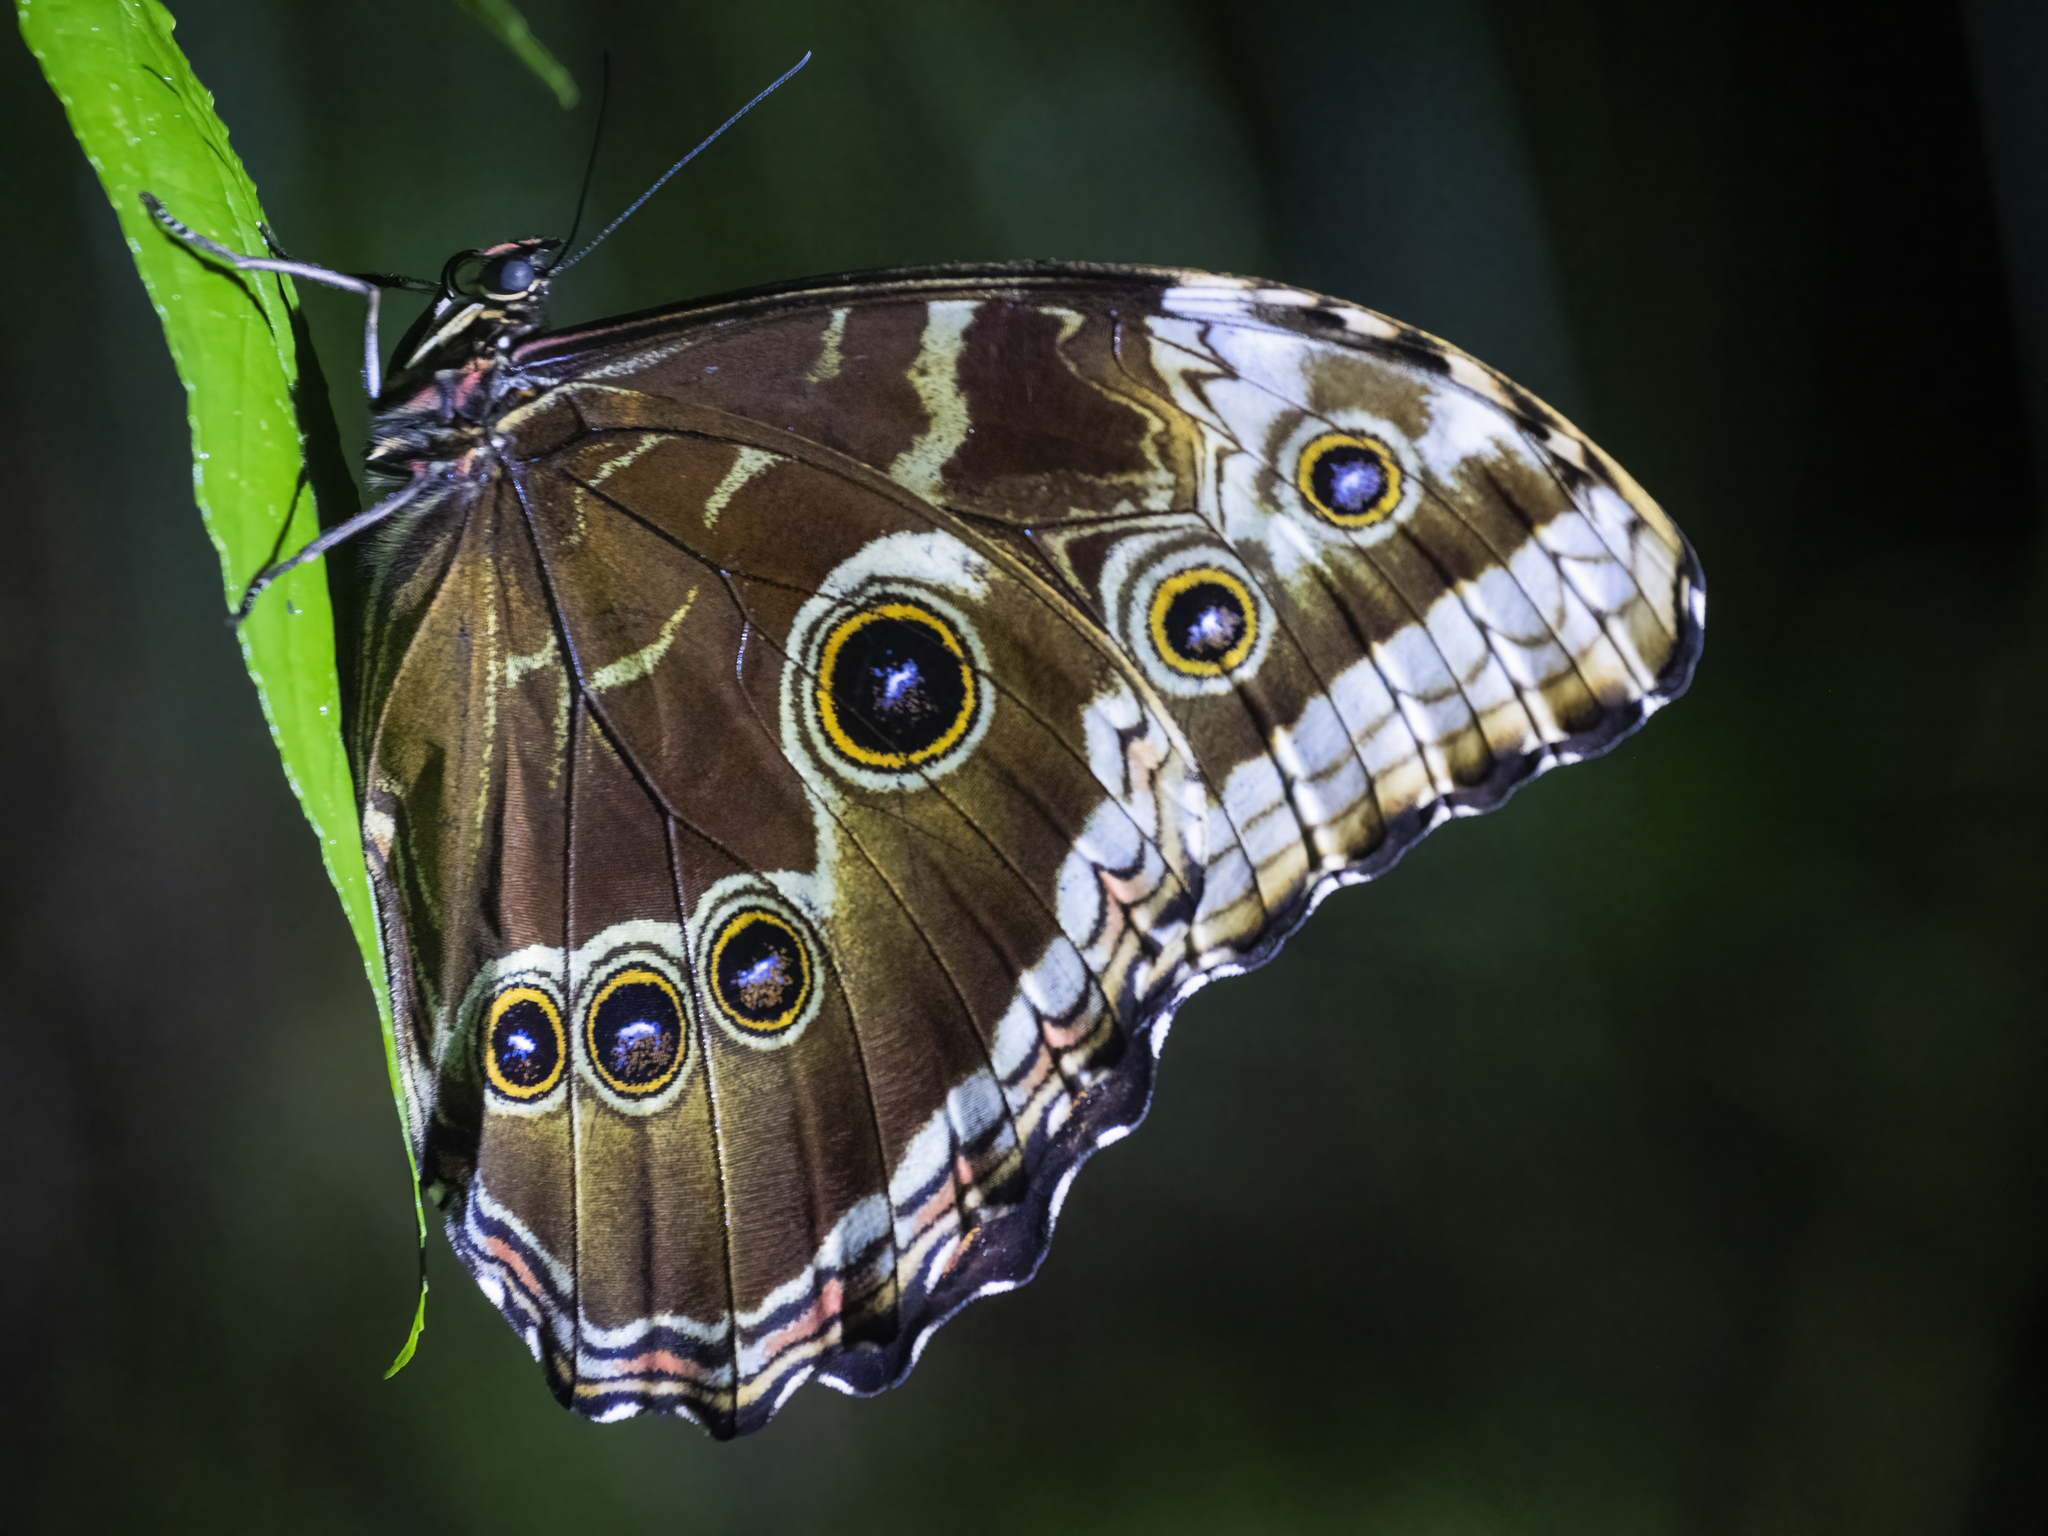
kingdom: Animalia
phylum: Arthropoda
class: Insecta
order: Lepidoptera
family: Nymphalidae
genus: Morpho
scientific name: Morpho helenor
